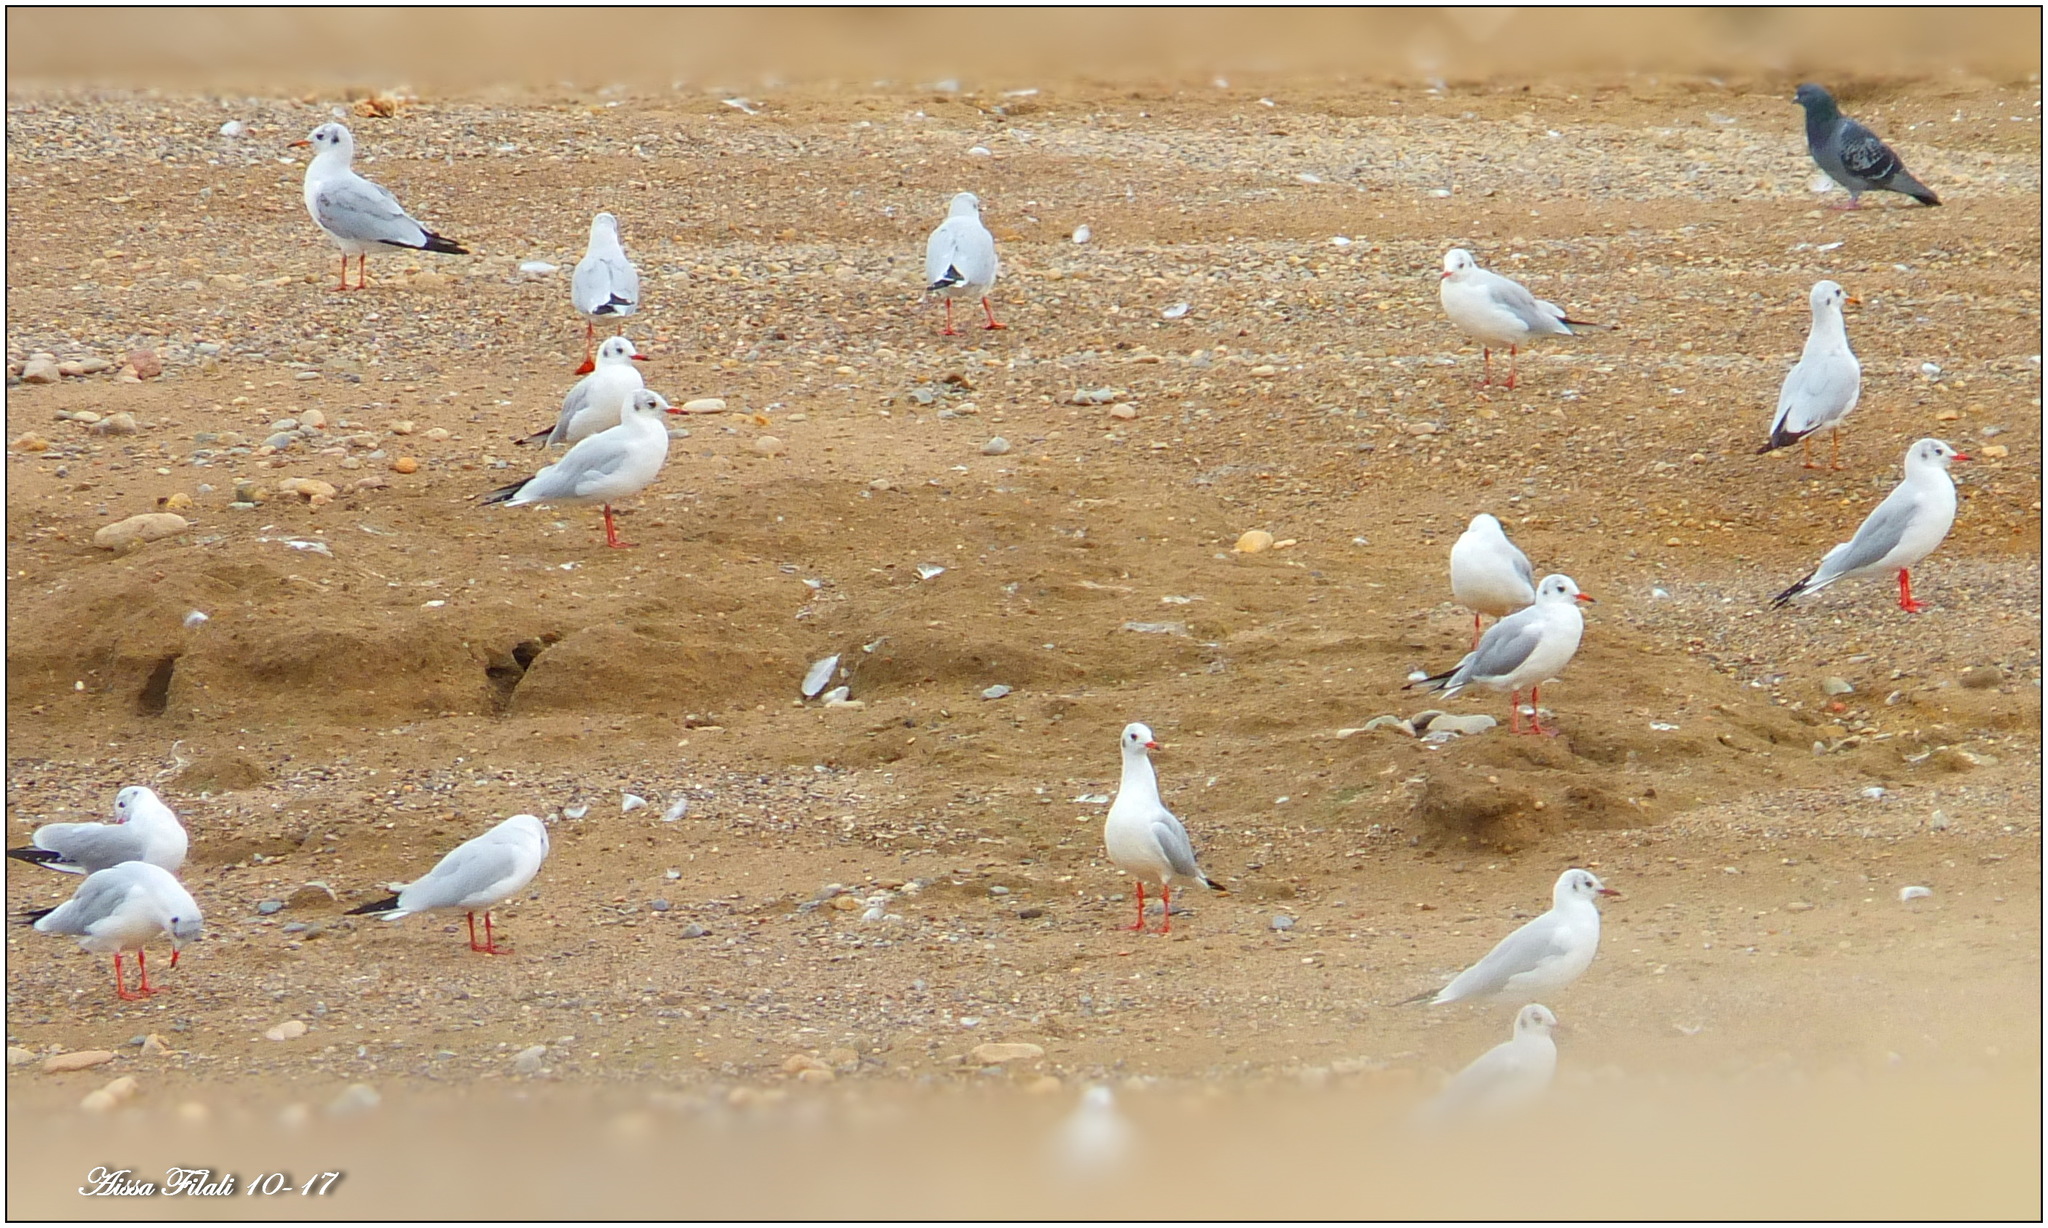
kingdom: Animalia
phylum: Chordata
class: Aves
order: Charadriiformes
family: Laridae
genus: Chroicocephalus
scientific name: Chroicocephalus ridibundus
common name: Black-headed gull
